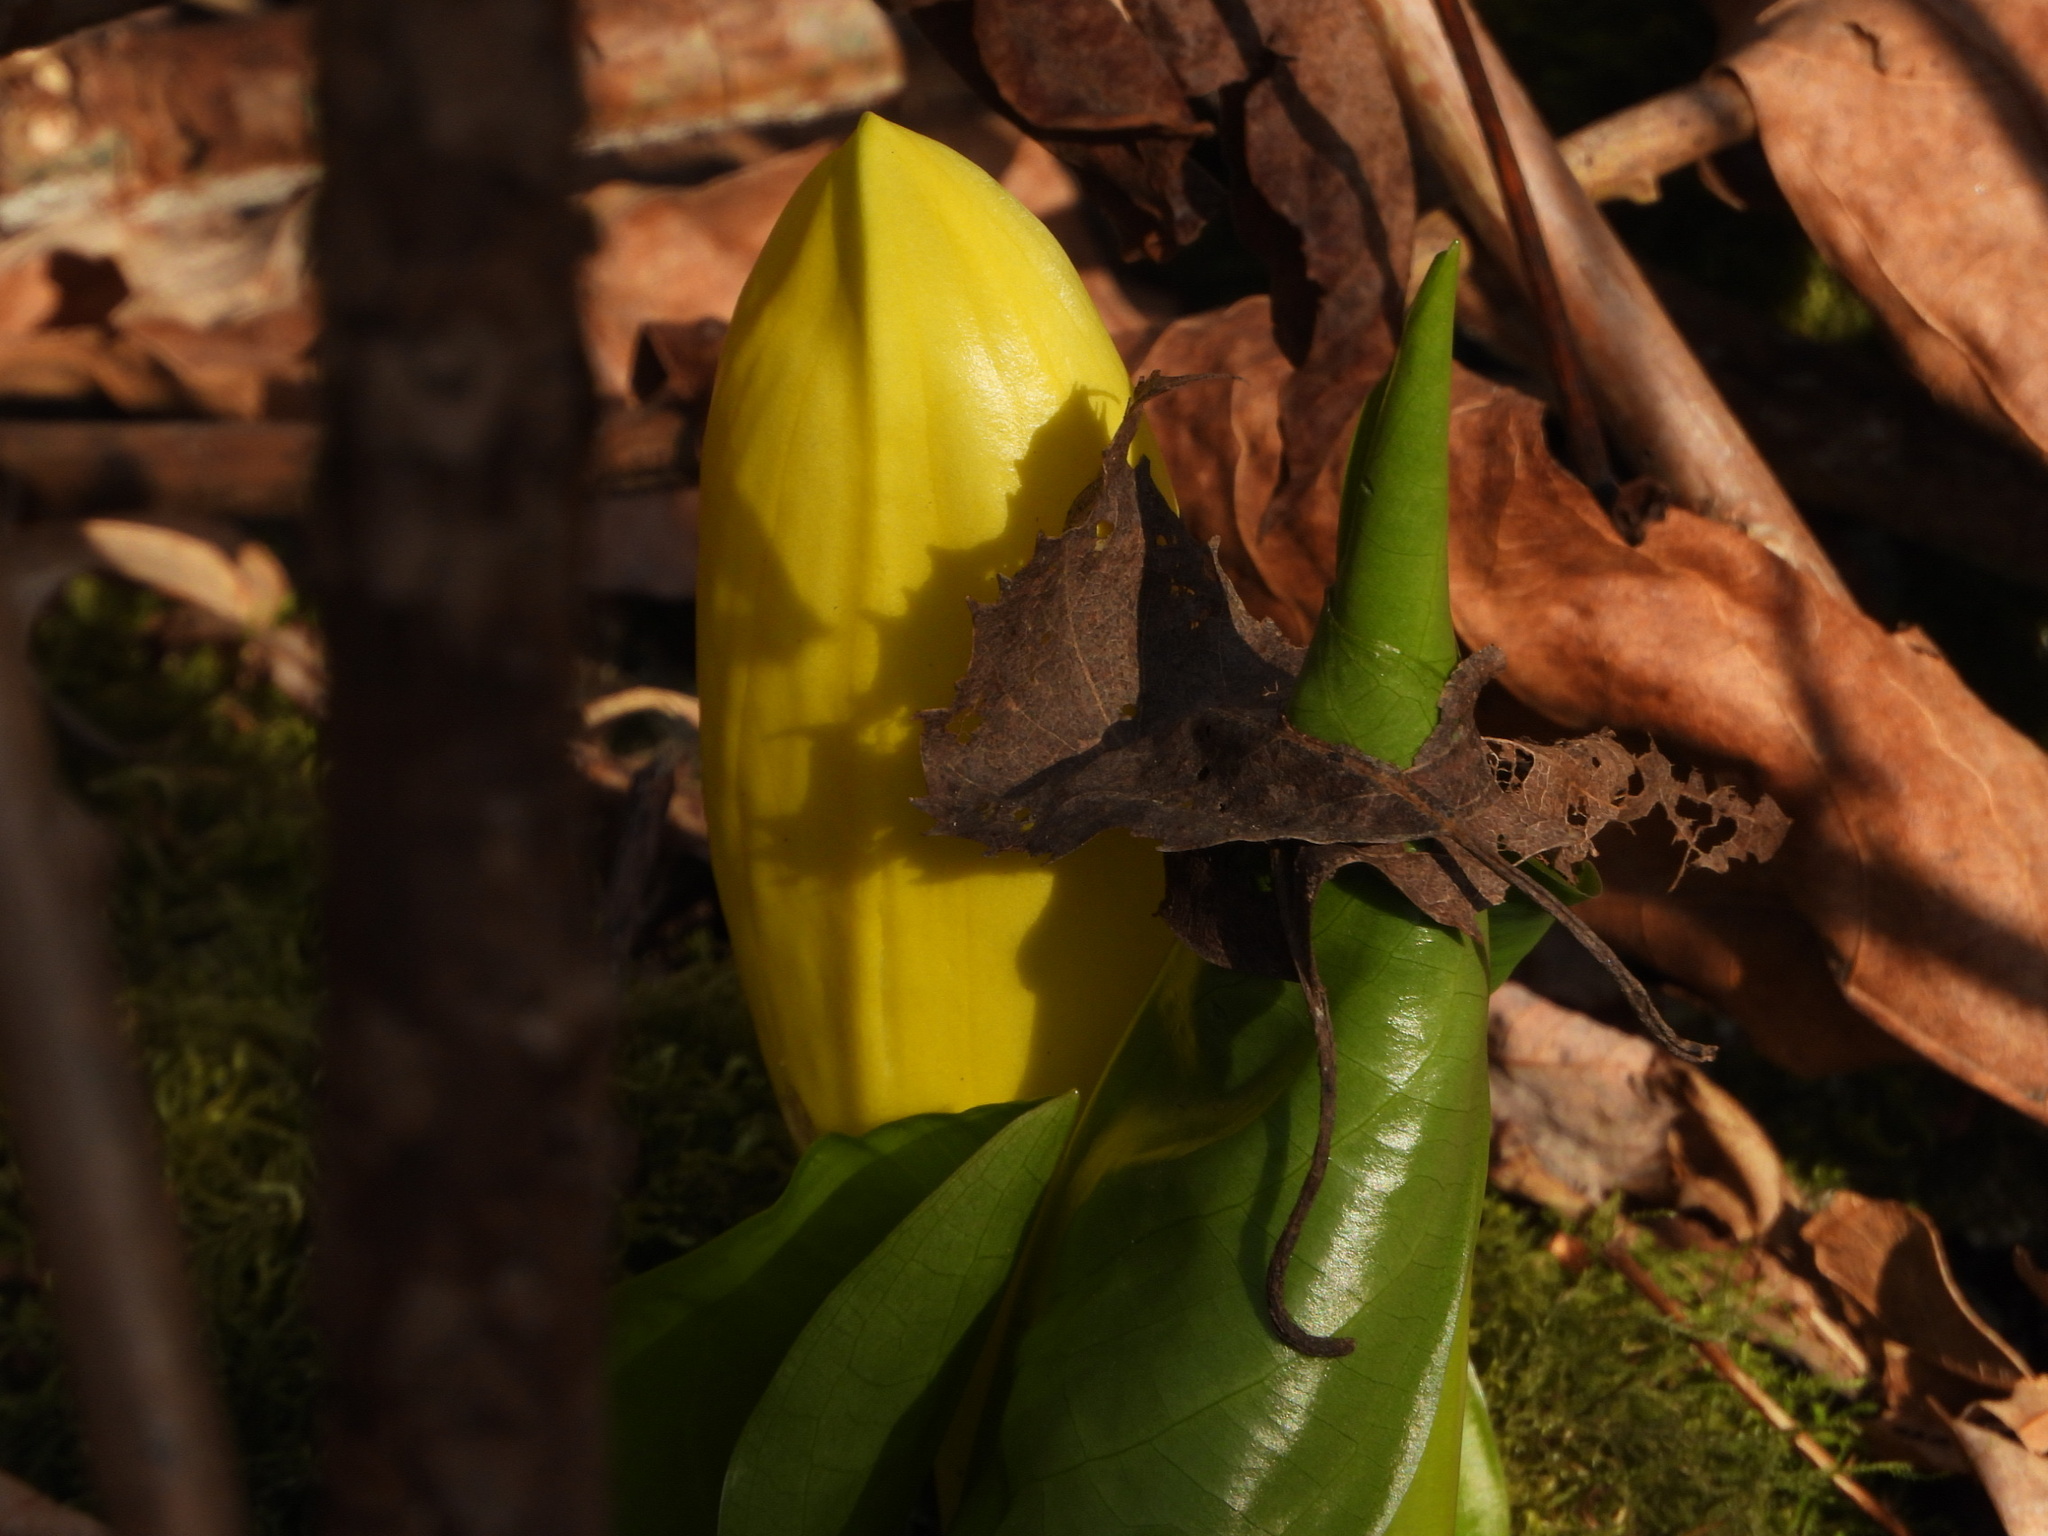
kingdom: Plantae
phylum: Tracheophyta
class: Liliopsida
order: Alismatales
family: Araceae
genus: Lysichiton
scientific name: Lysichiton americanus
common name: American skunk cabbage
